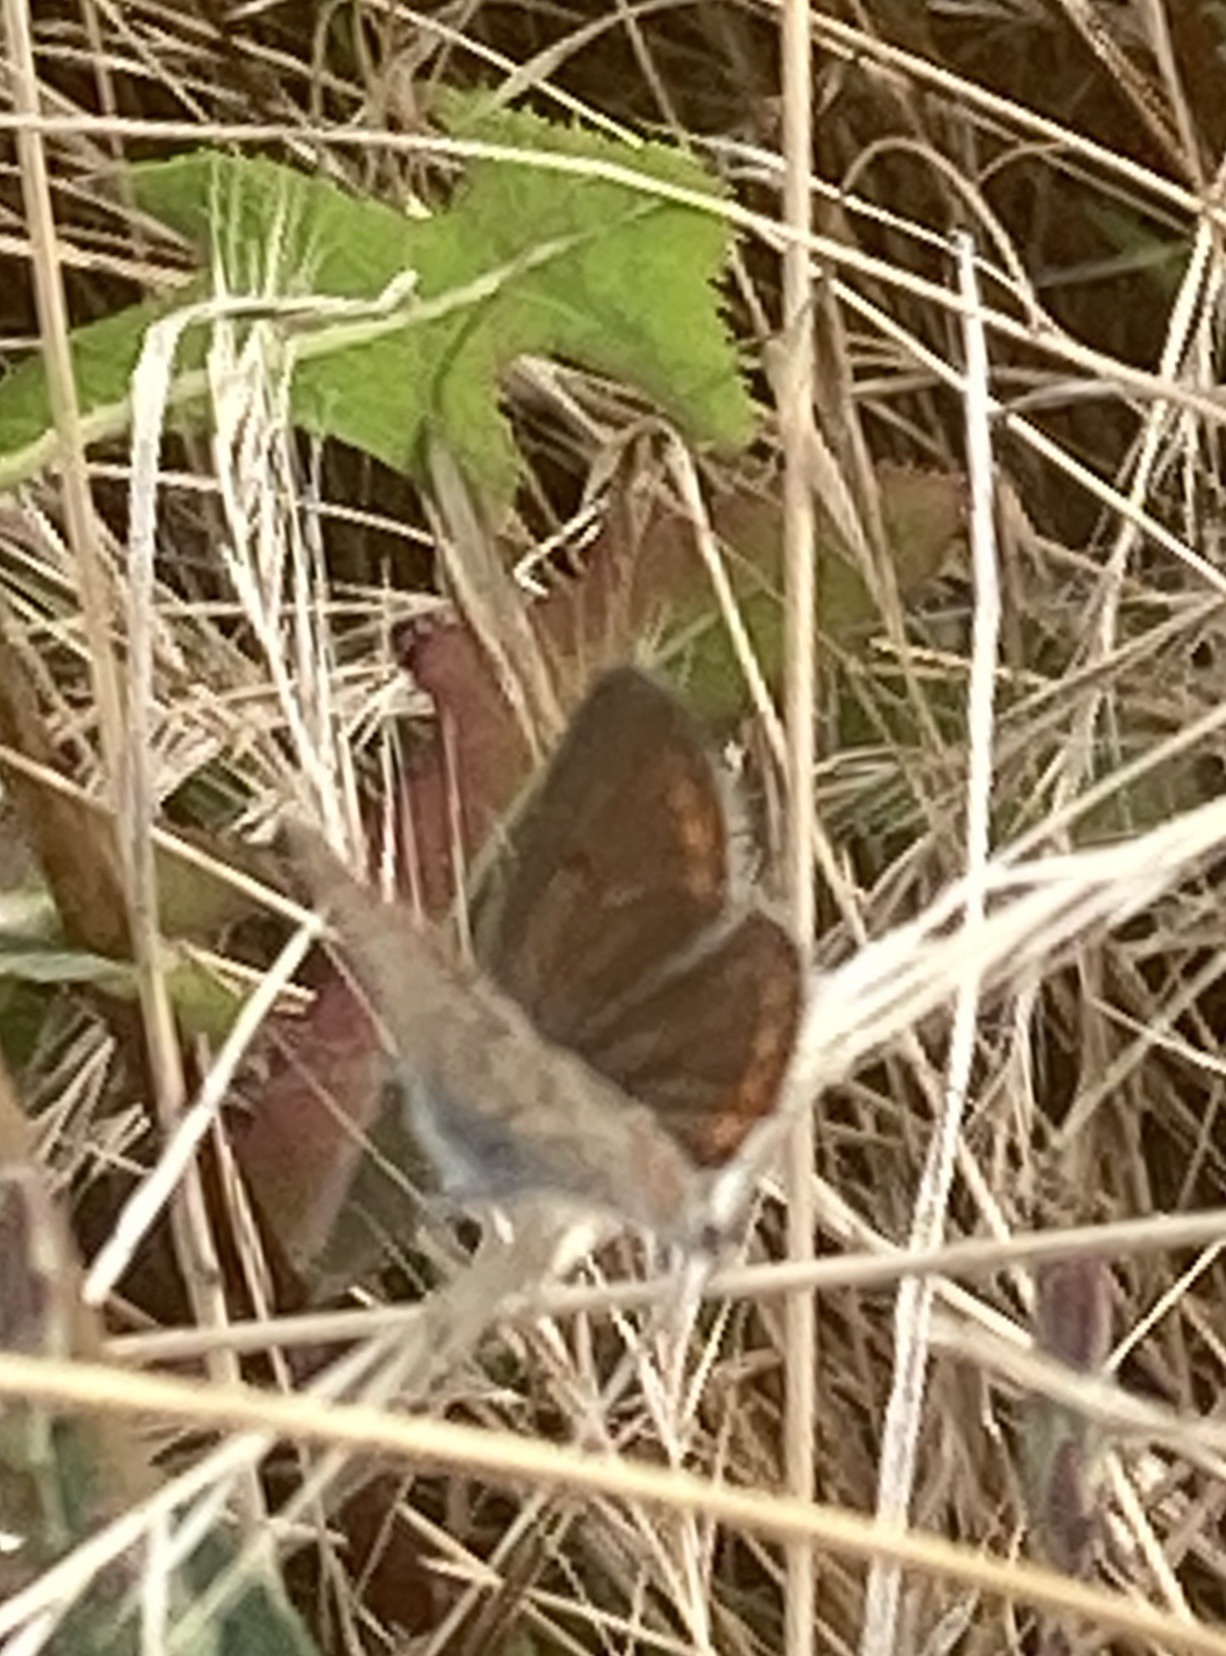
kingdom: Animalia
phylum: Arthropoda
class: Insecta
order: Lepidoptera
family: Lycaenidae
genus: Aricia
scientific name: Aricia agestis
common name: Brown argus
